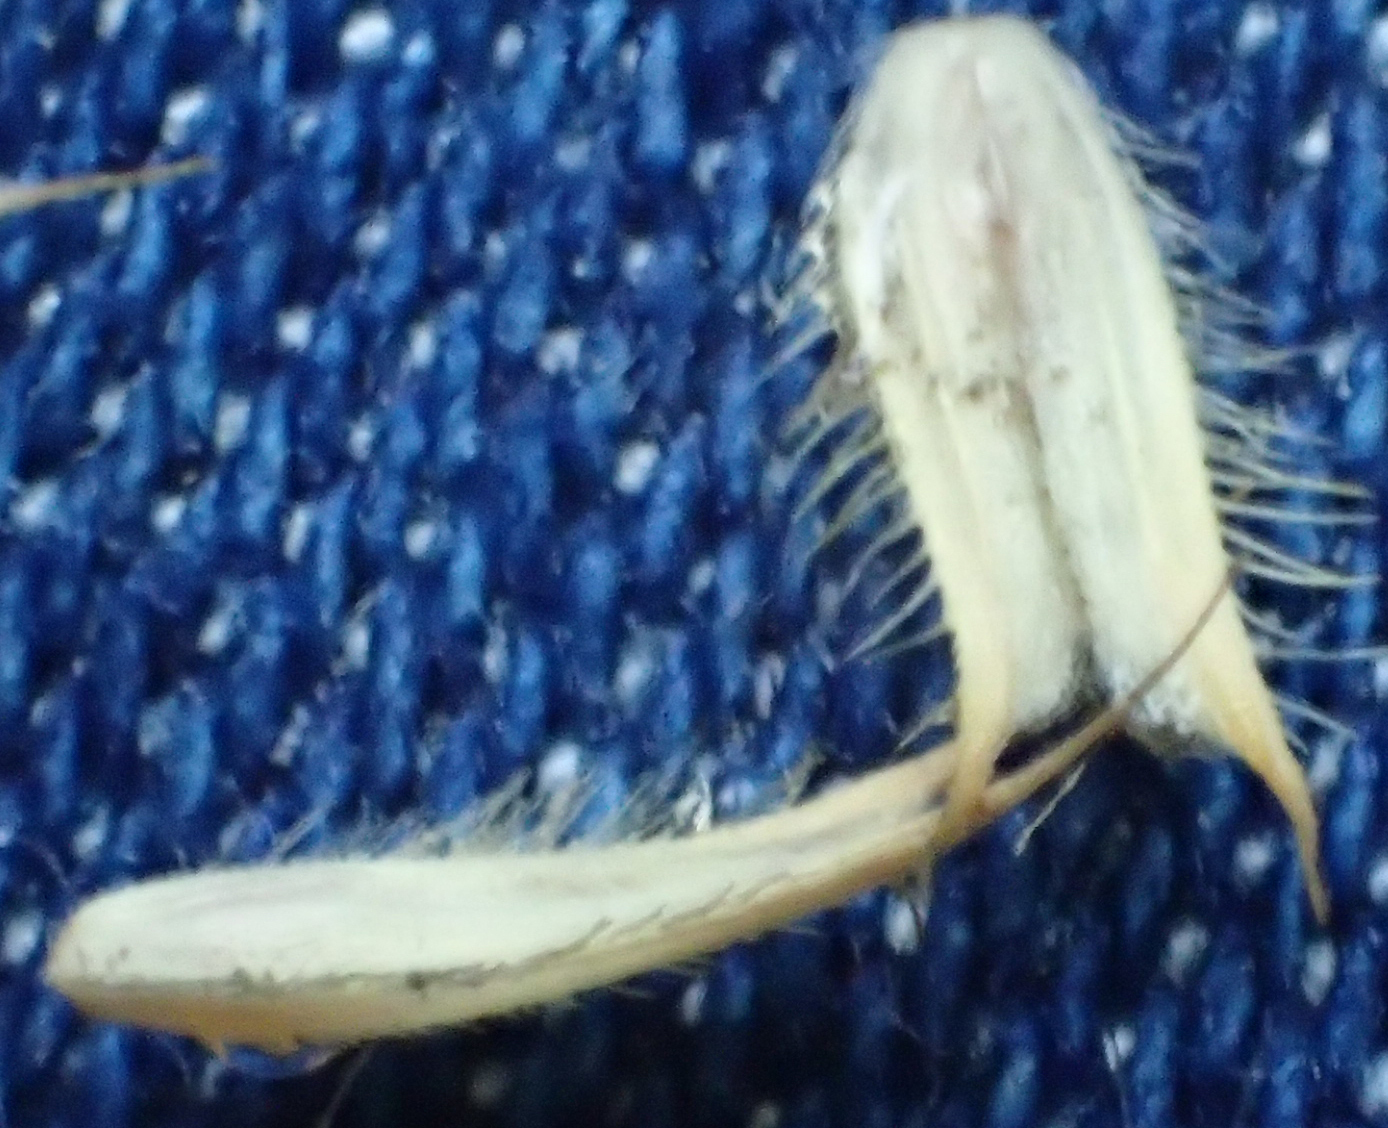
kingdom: Plantae
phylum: Tracheophyta
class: Liliopsida
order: Poales
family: Poaceae
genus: Phleum
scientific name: Phleum alpinum
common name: Alpine cat's-tail
